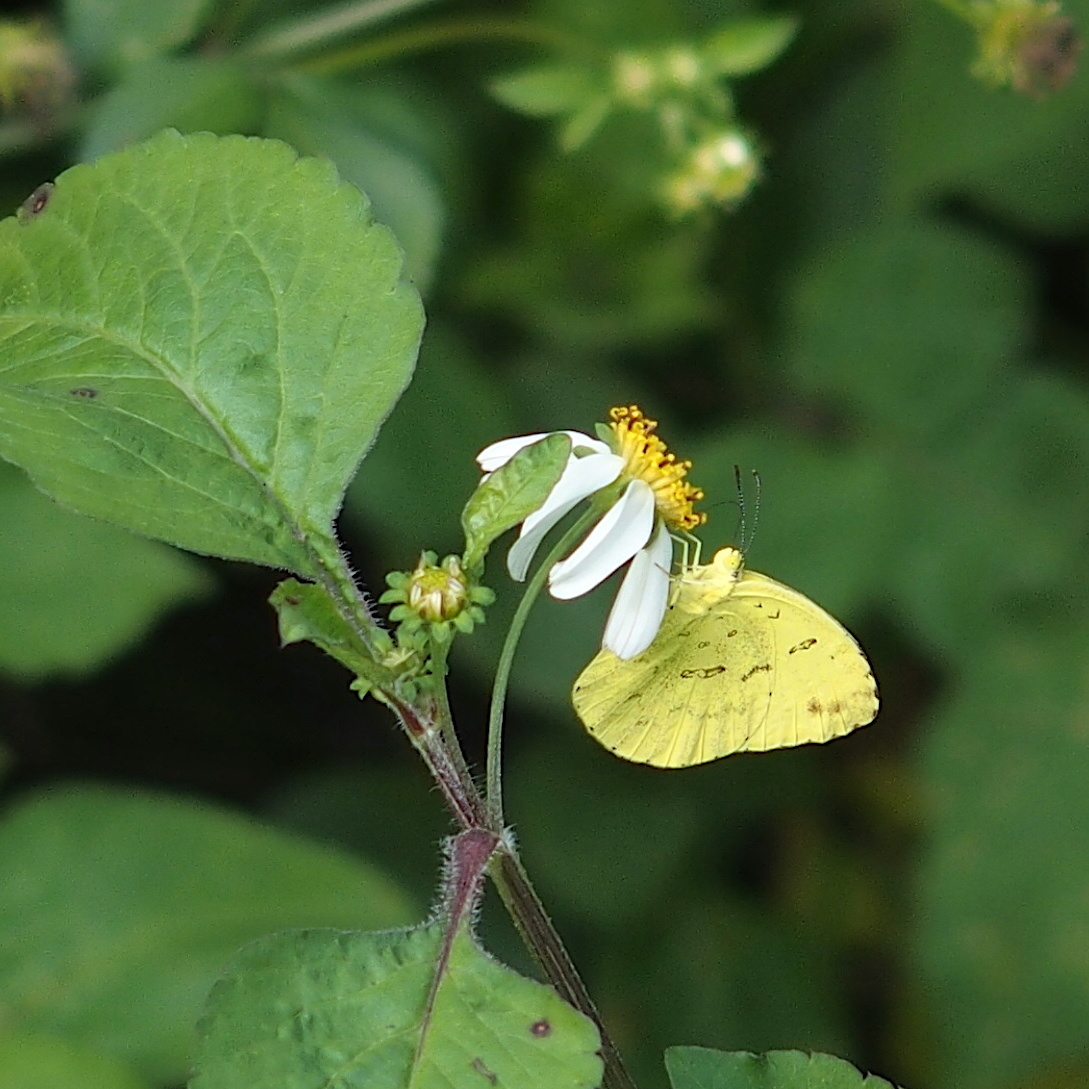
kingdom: Animalia
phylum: Arthropoda
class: Insecta
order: Lepidoptera
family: Pieridae
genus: Eurema
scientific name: Eurema blanda
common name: Three-spot grass yellow
